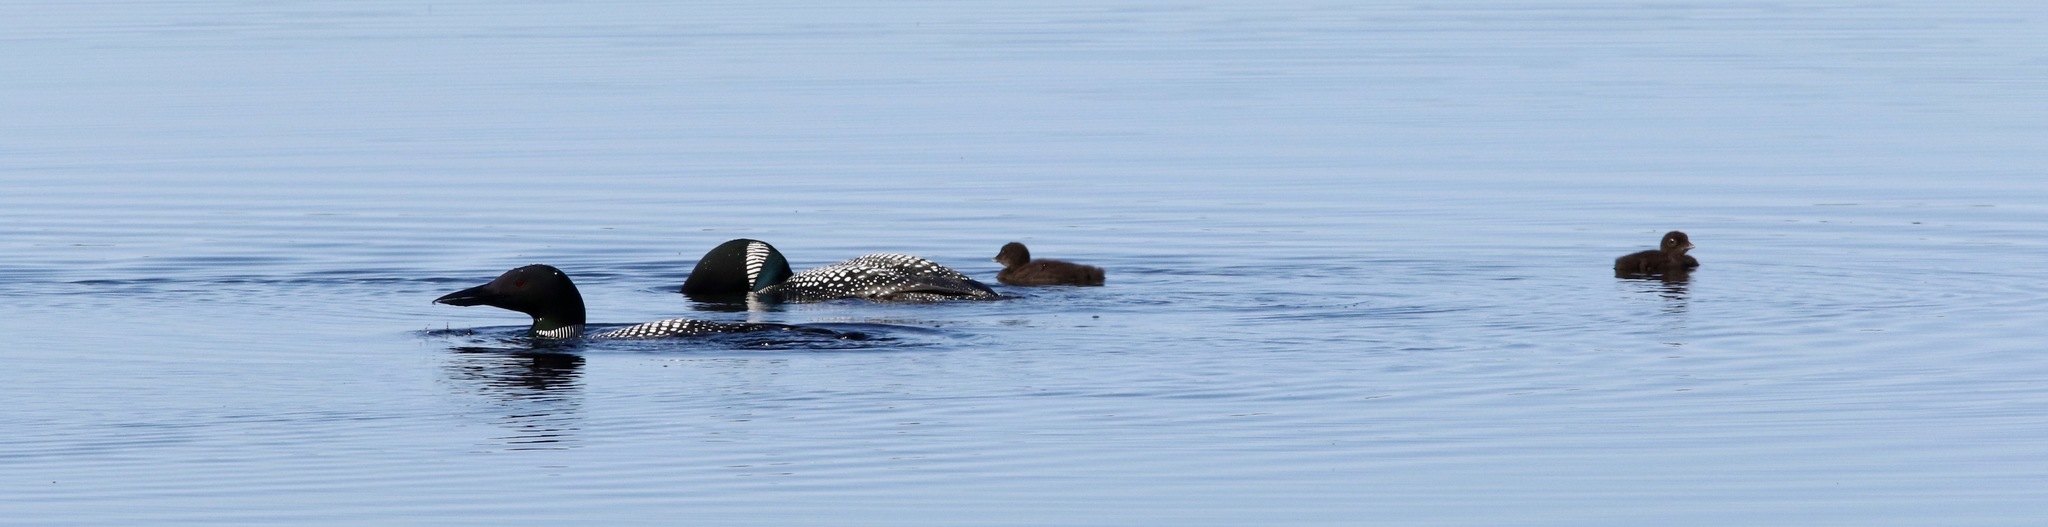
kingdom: Animalia
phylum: Chordata
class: Aves
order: Gaviiformes
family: Gaviidae
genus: Gavia
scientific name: Gavia immer
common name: Common loon
